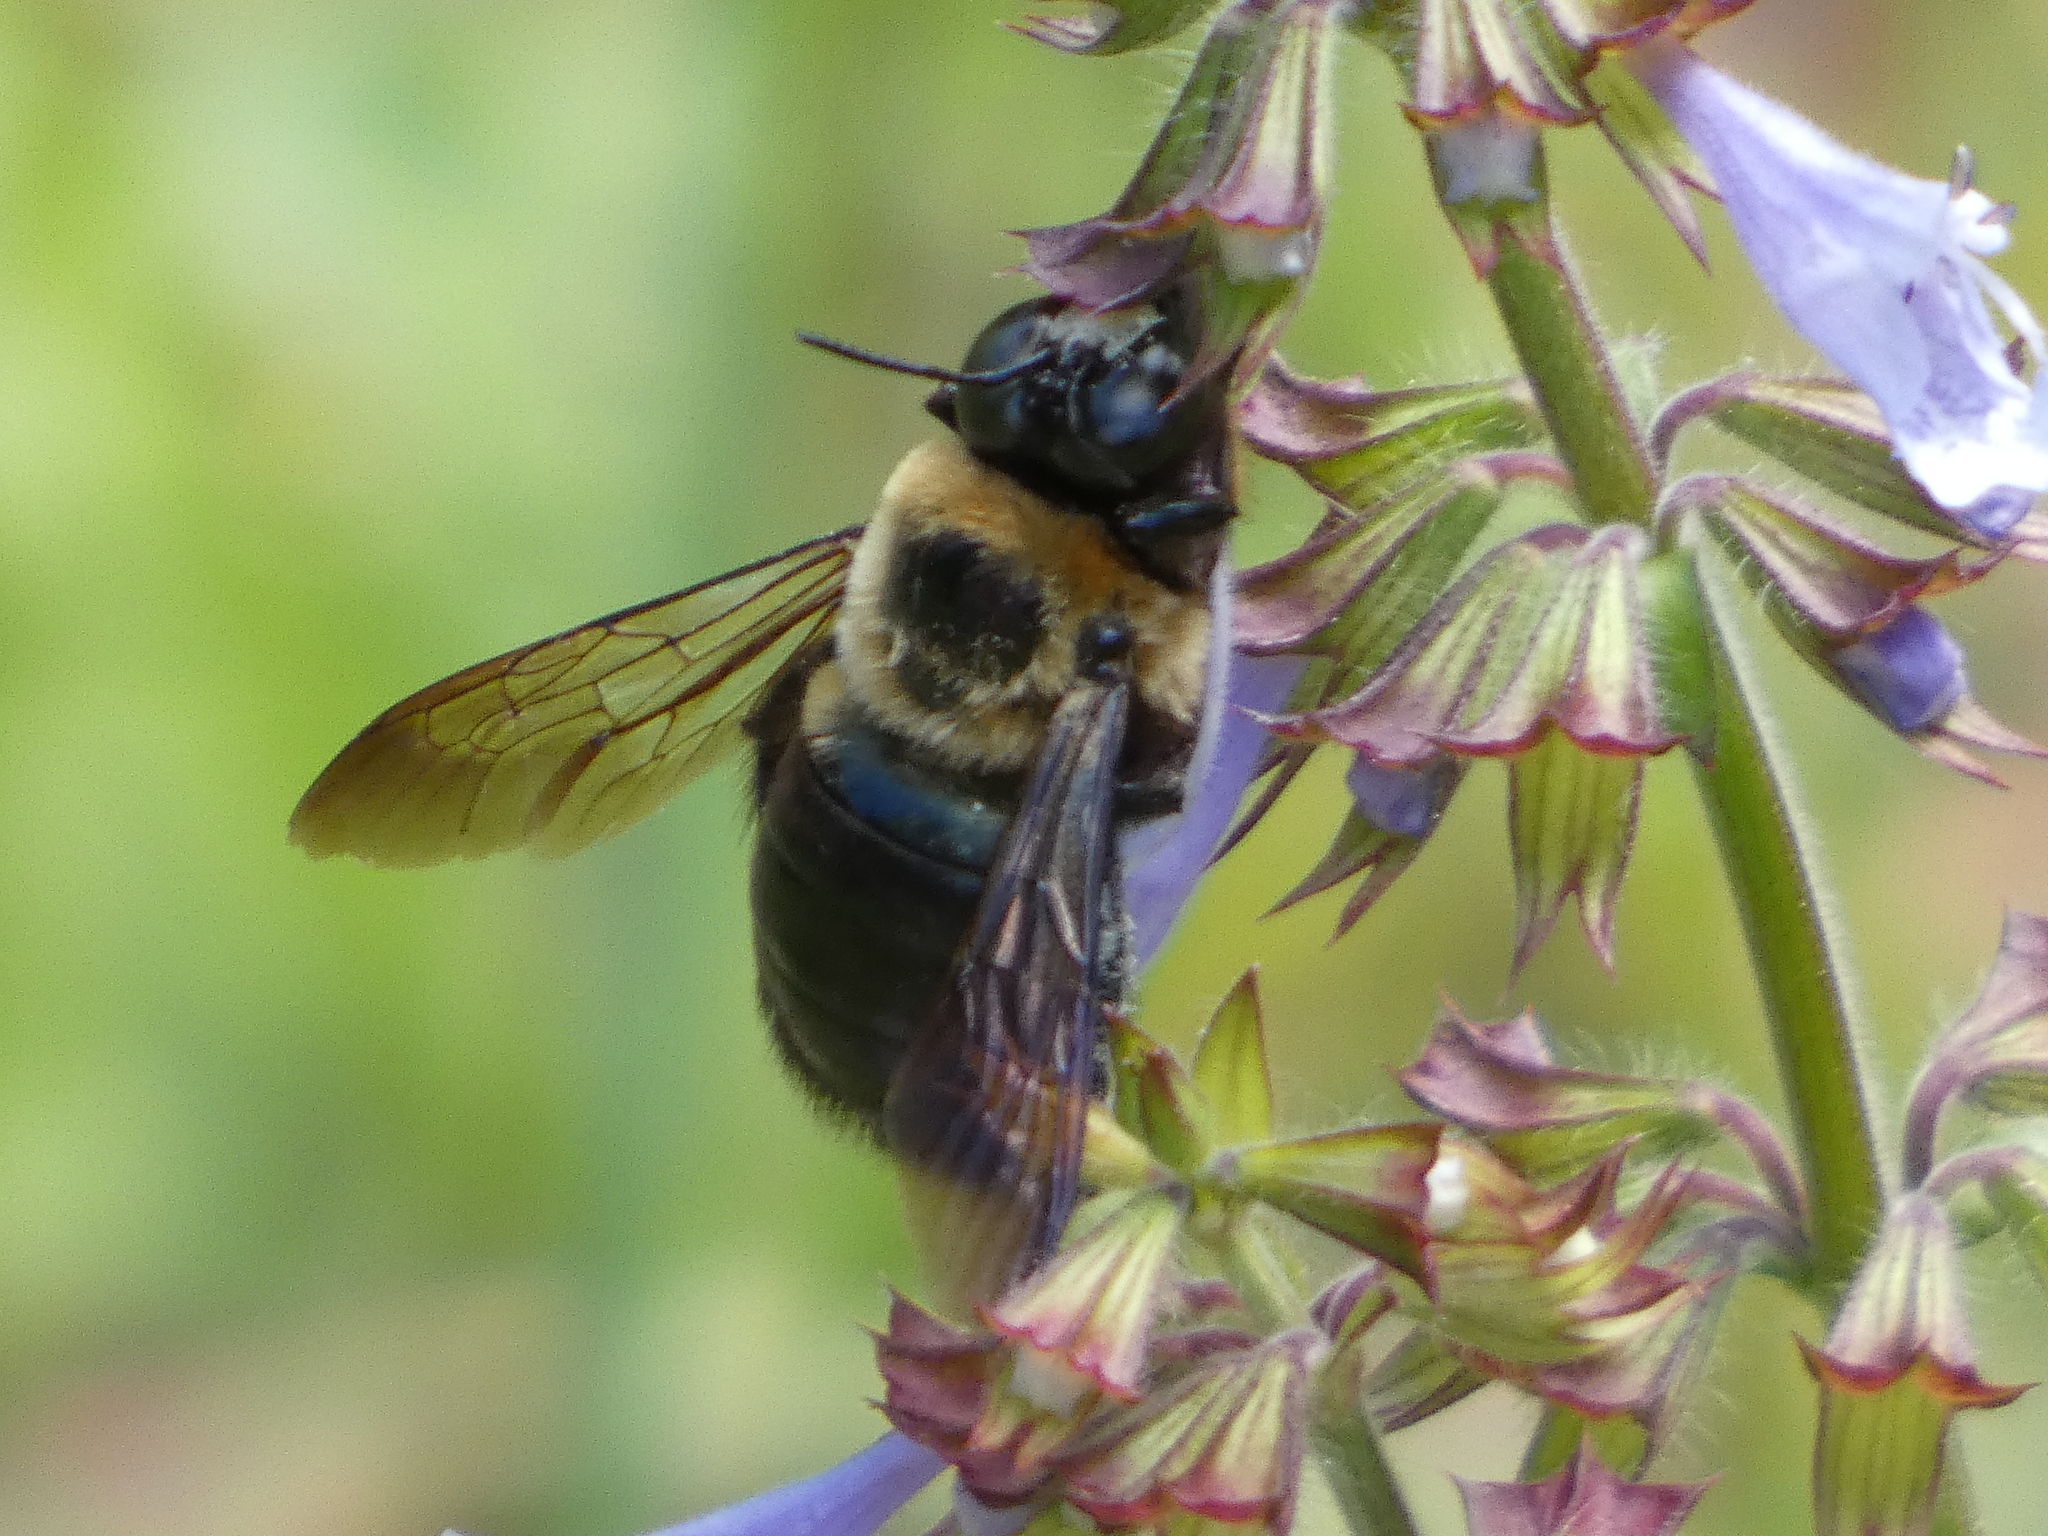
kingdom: Animalia
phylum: Arthropoda
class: Insecta
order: Hymenoptera
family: Apidae
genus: Xylocopa
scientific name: Xylocopa virginica
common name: Carpenter bee
